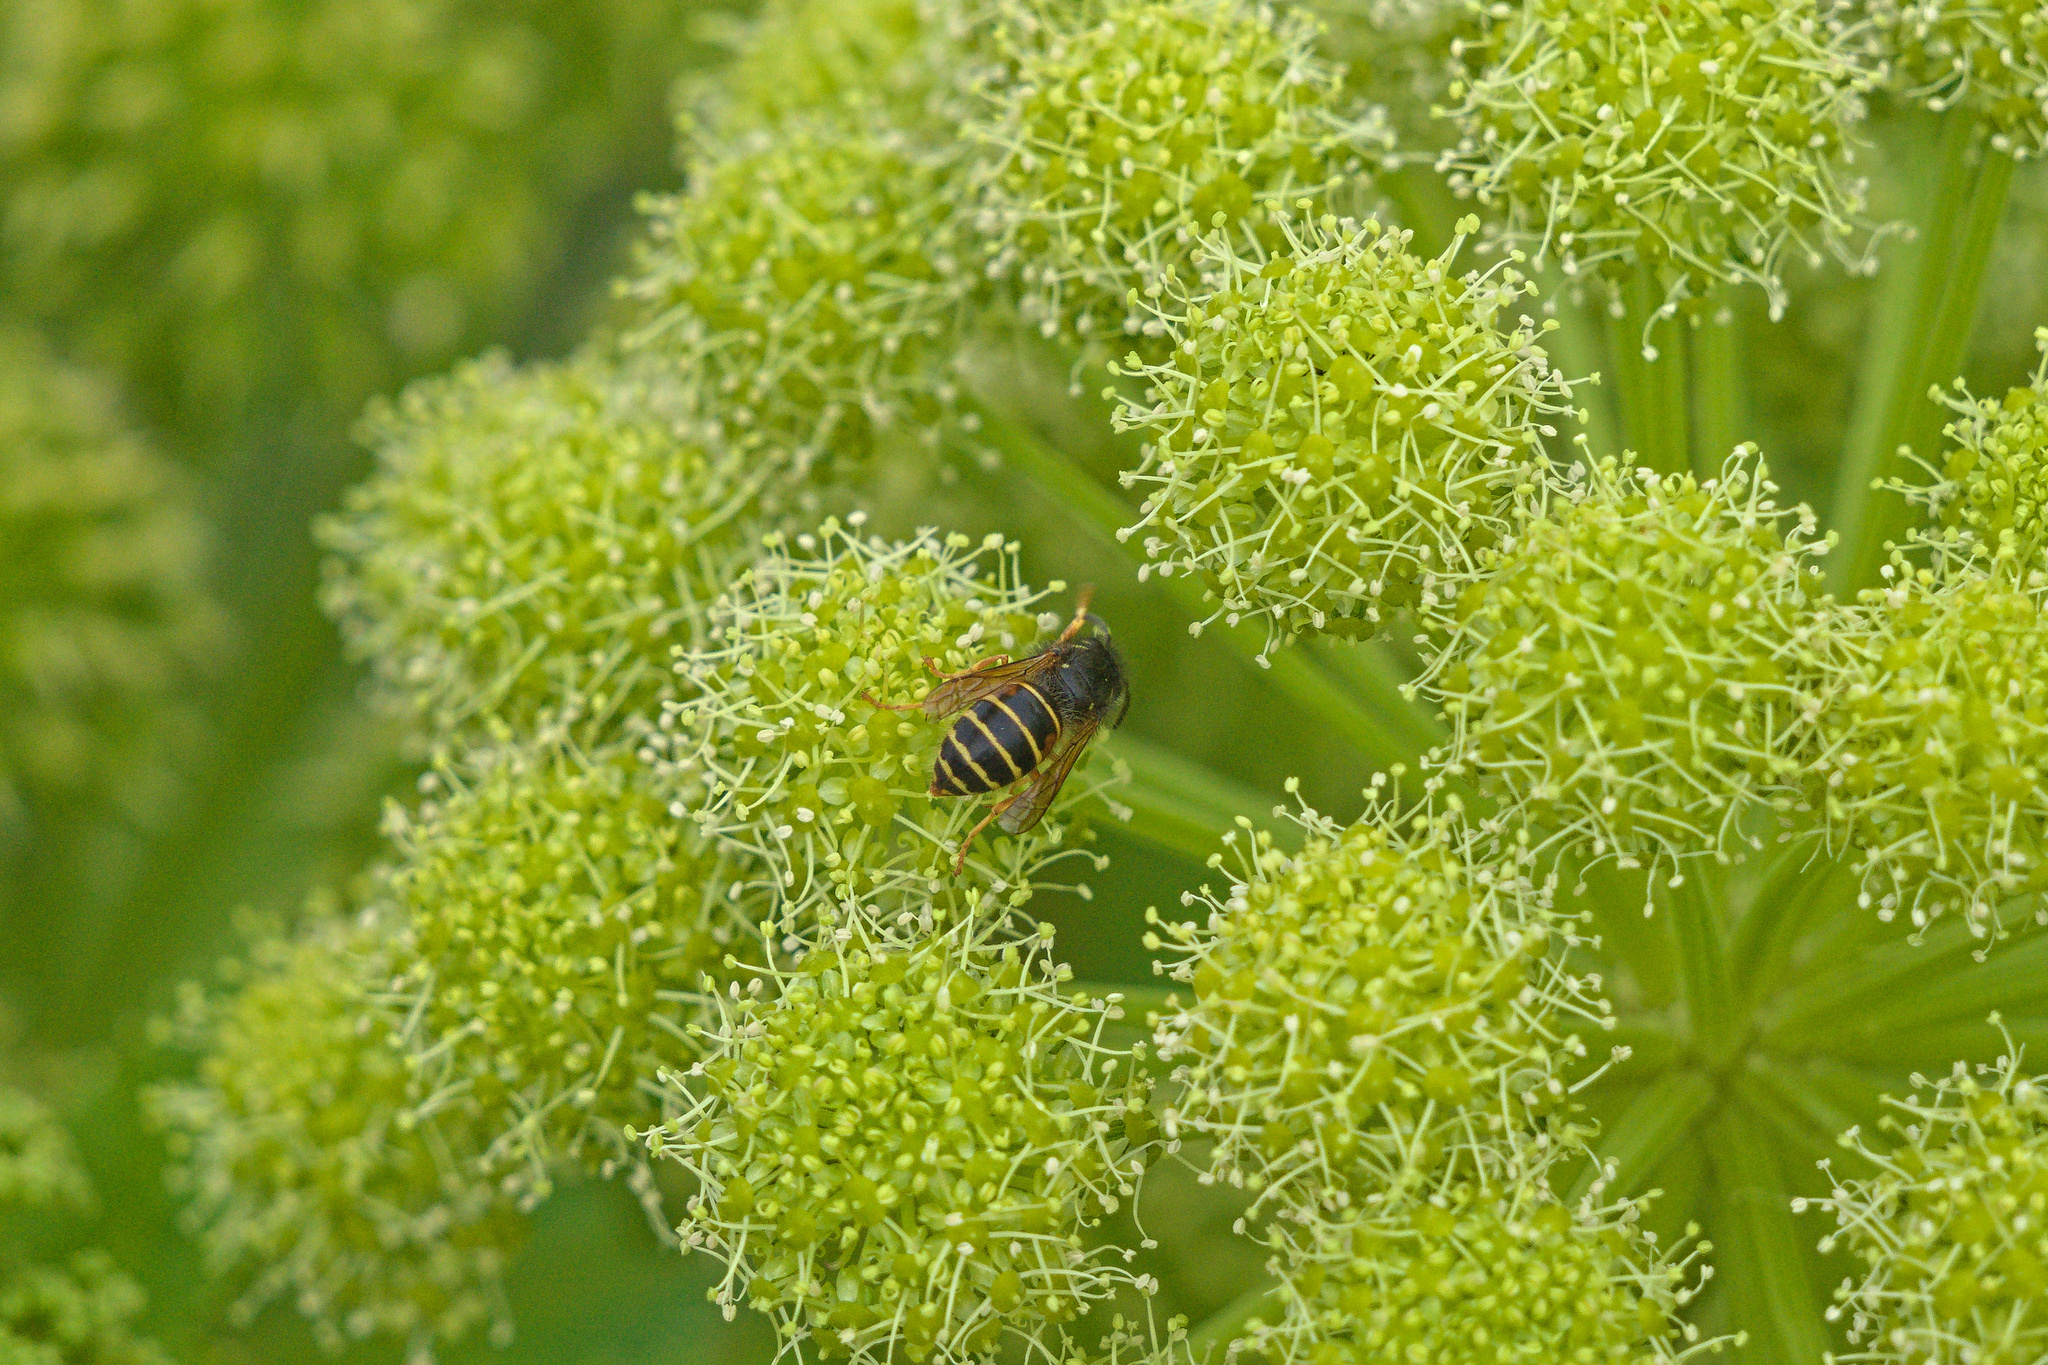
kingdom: Animalia
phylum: Arthropoda
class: Insecta
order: Hymenoptera
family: Vespidae
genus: Dolichovespula
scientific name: Dolichovespula norwegica
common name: Norwegian wasp
